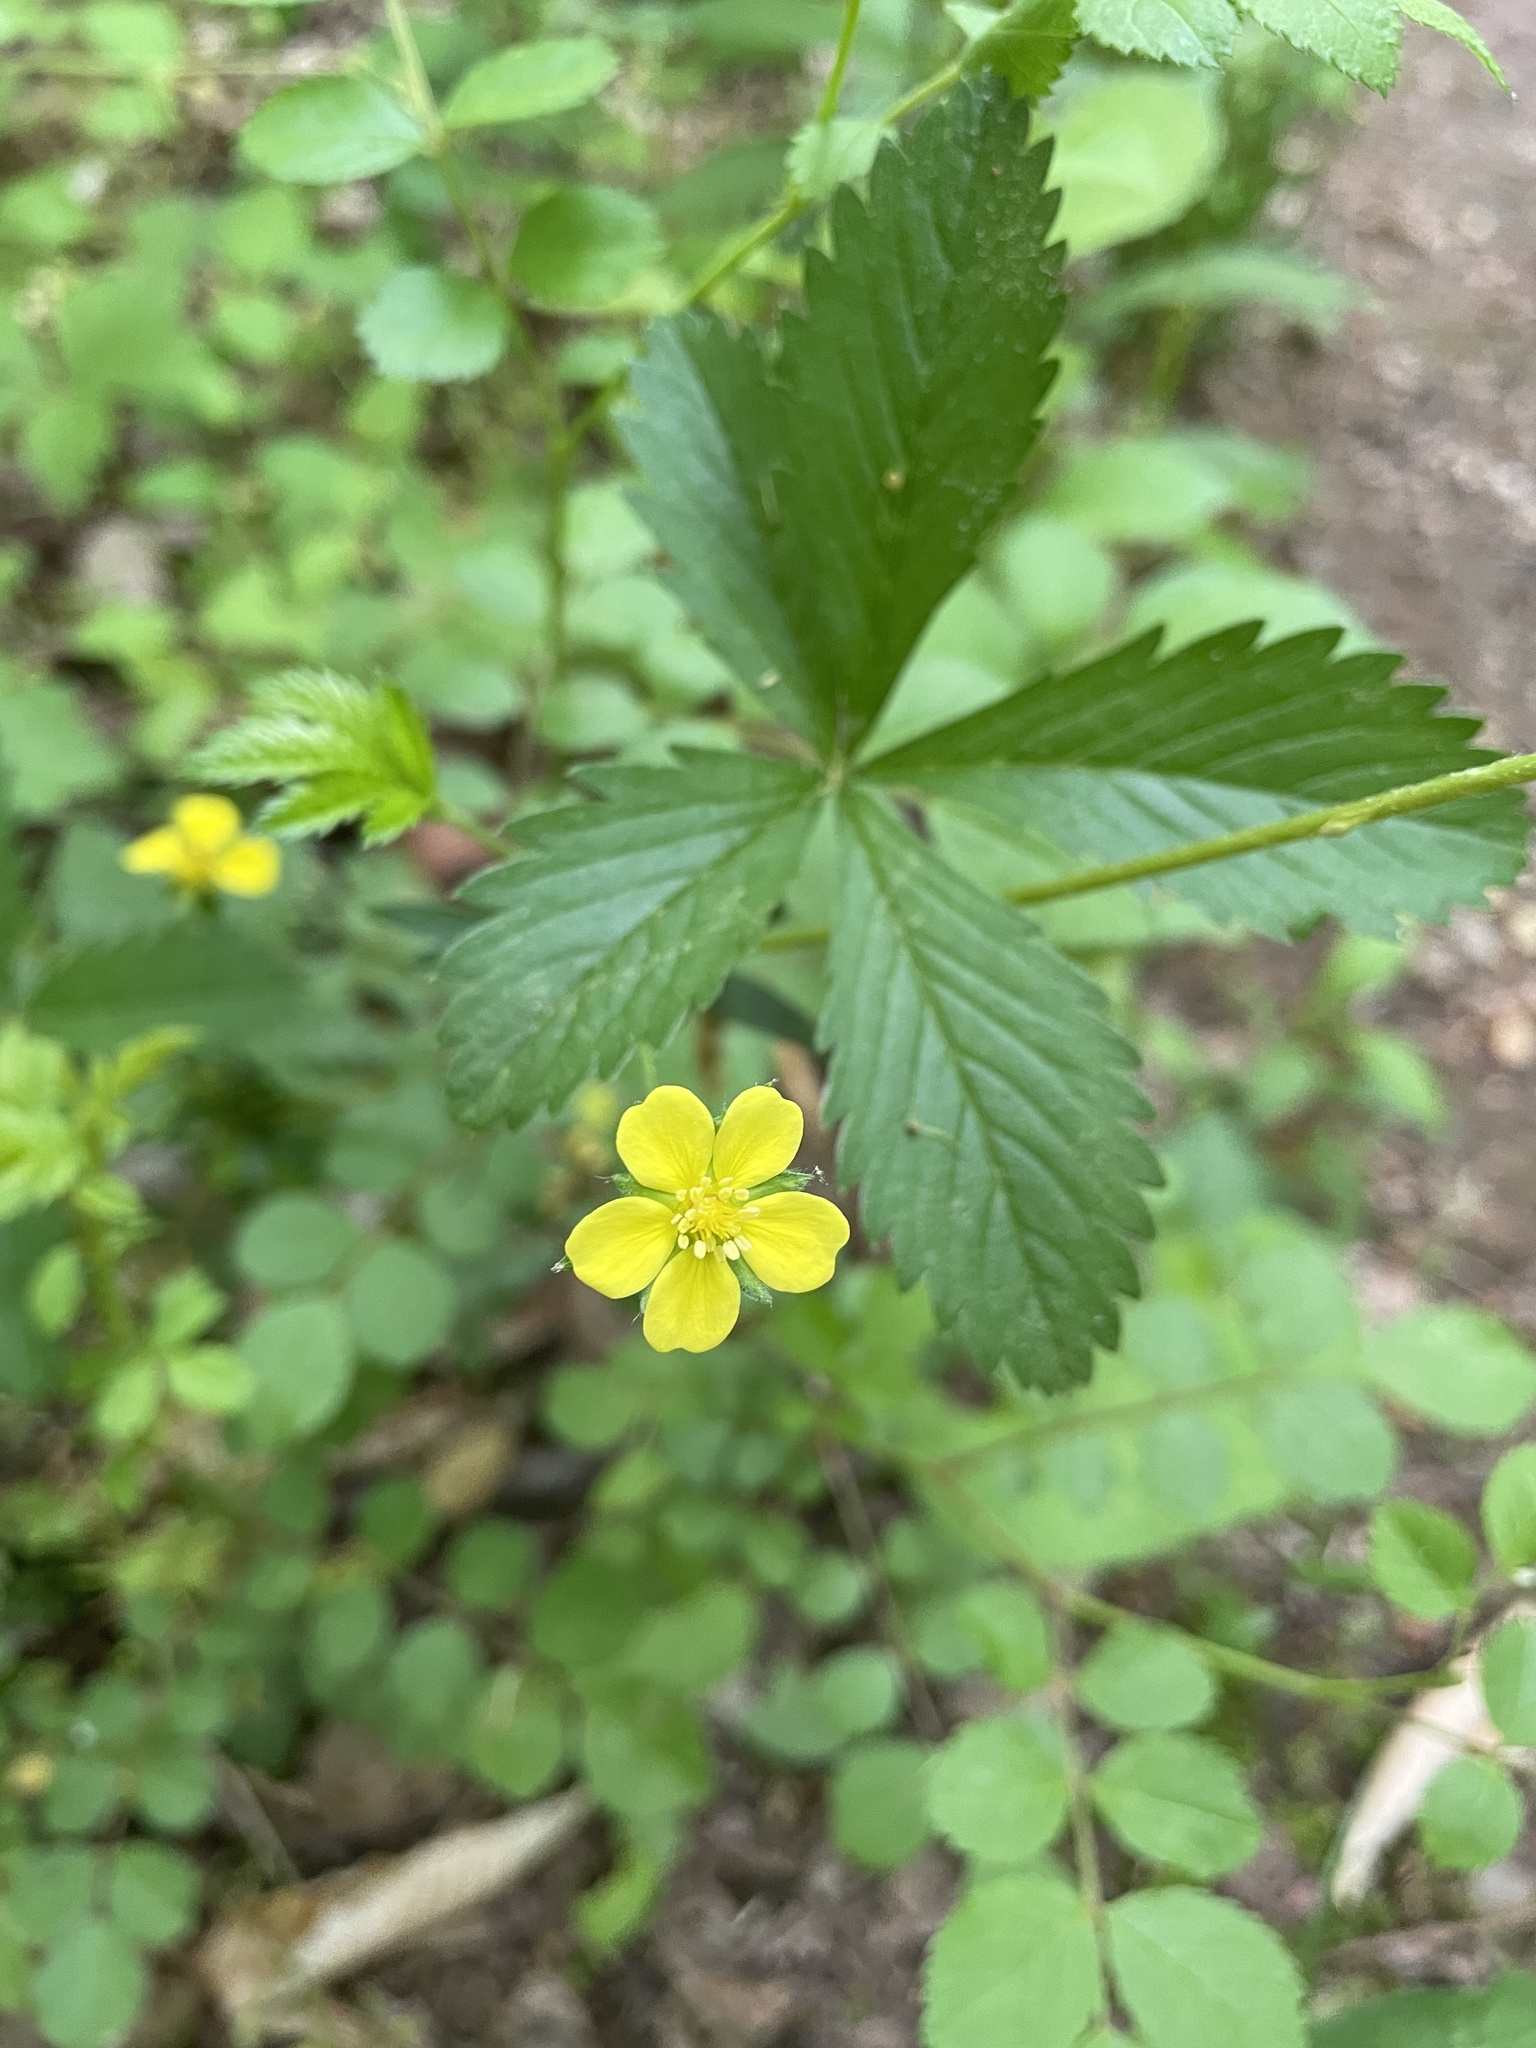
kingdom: Plantae
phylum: Tracheophyta
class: Magnoliopsida
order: Rosales
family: Rosaceae
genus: Potentilla
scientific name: Potentilla simplex
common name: Old field cinquefoil
